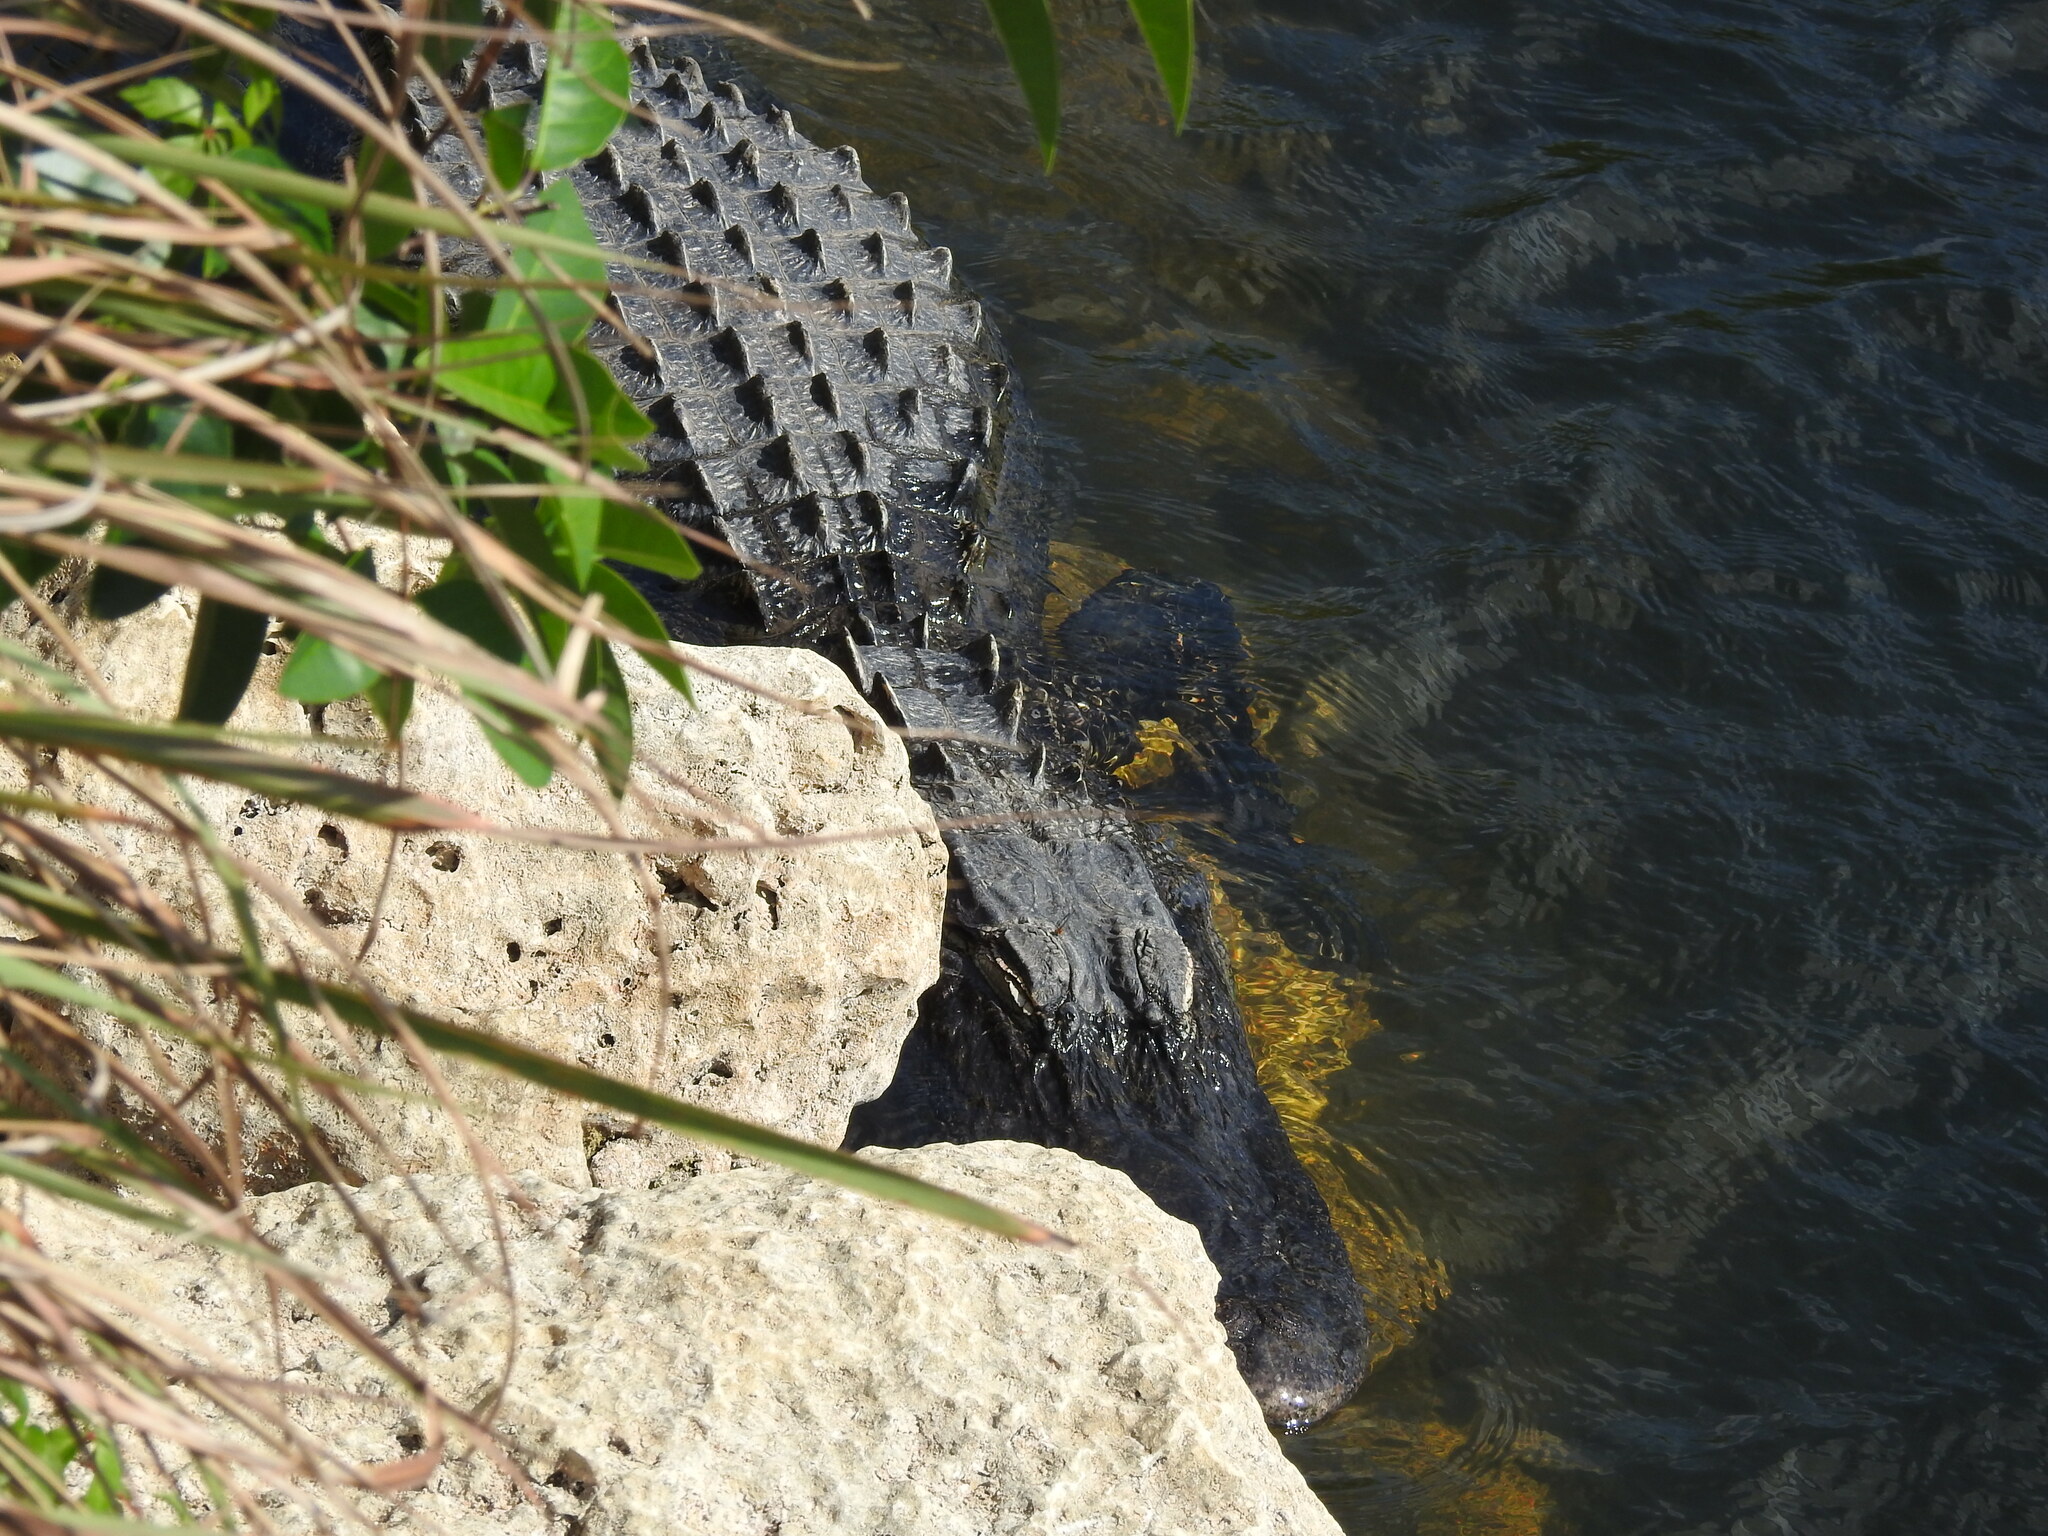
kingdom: Animalia
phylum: Chordata
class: Crocodylia
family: Alligatoridae
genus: Alligator
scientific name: Alligator mississippiensis
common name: American alligator
